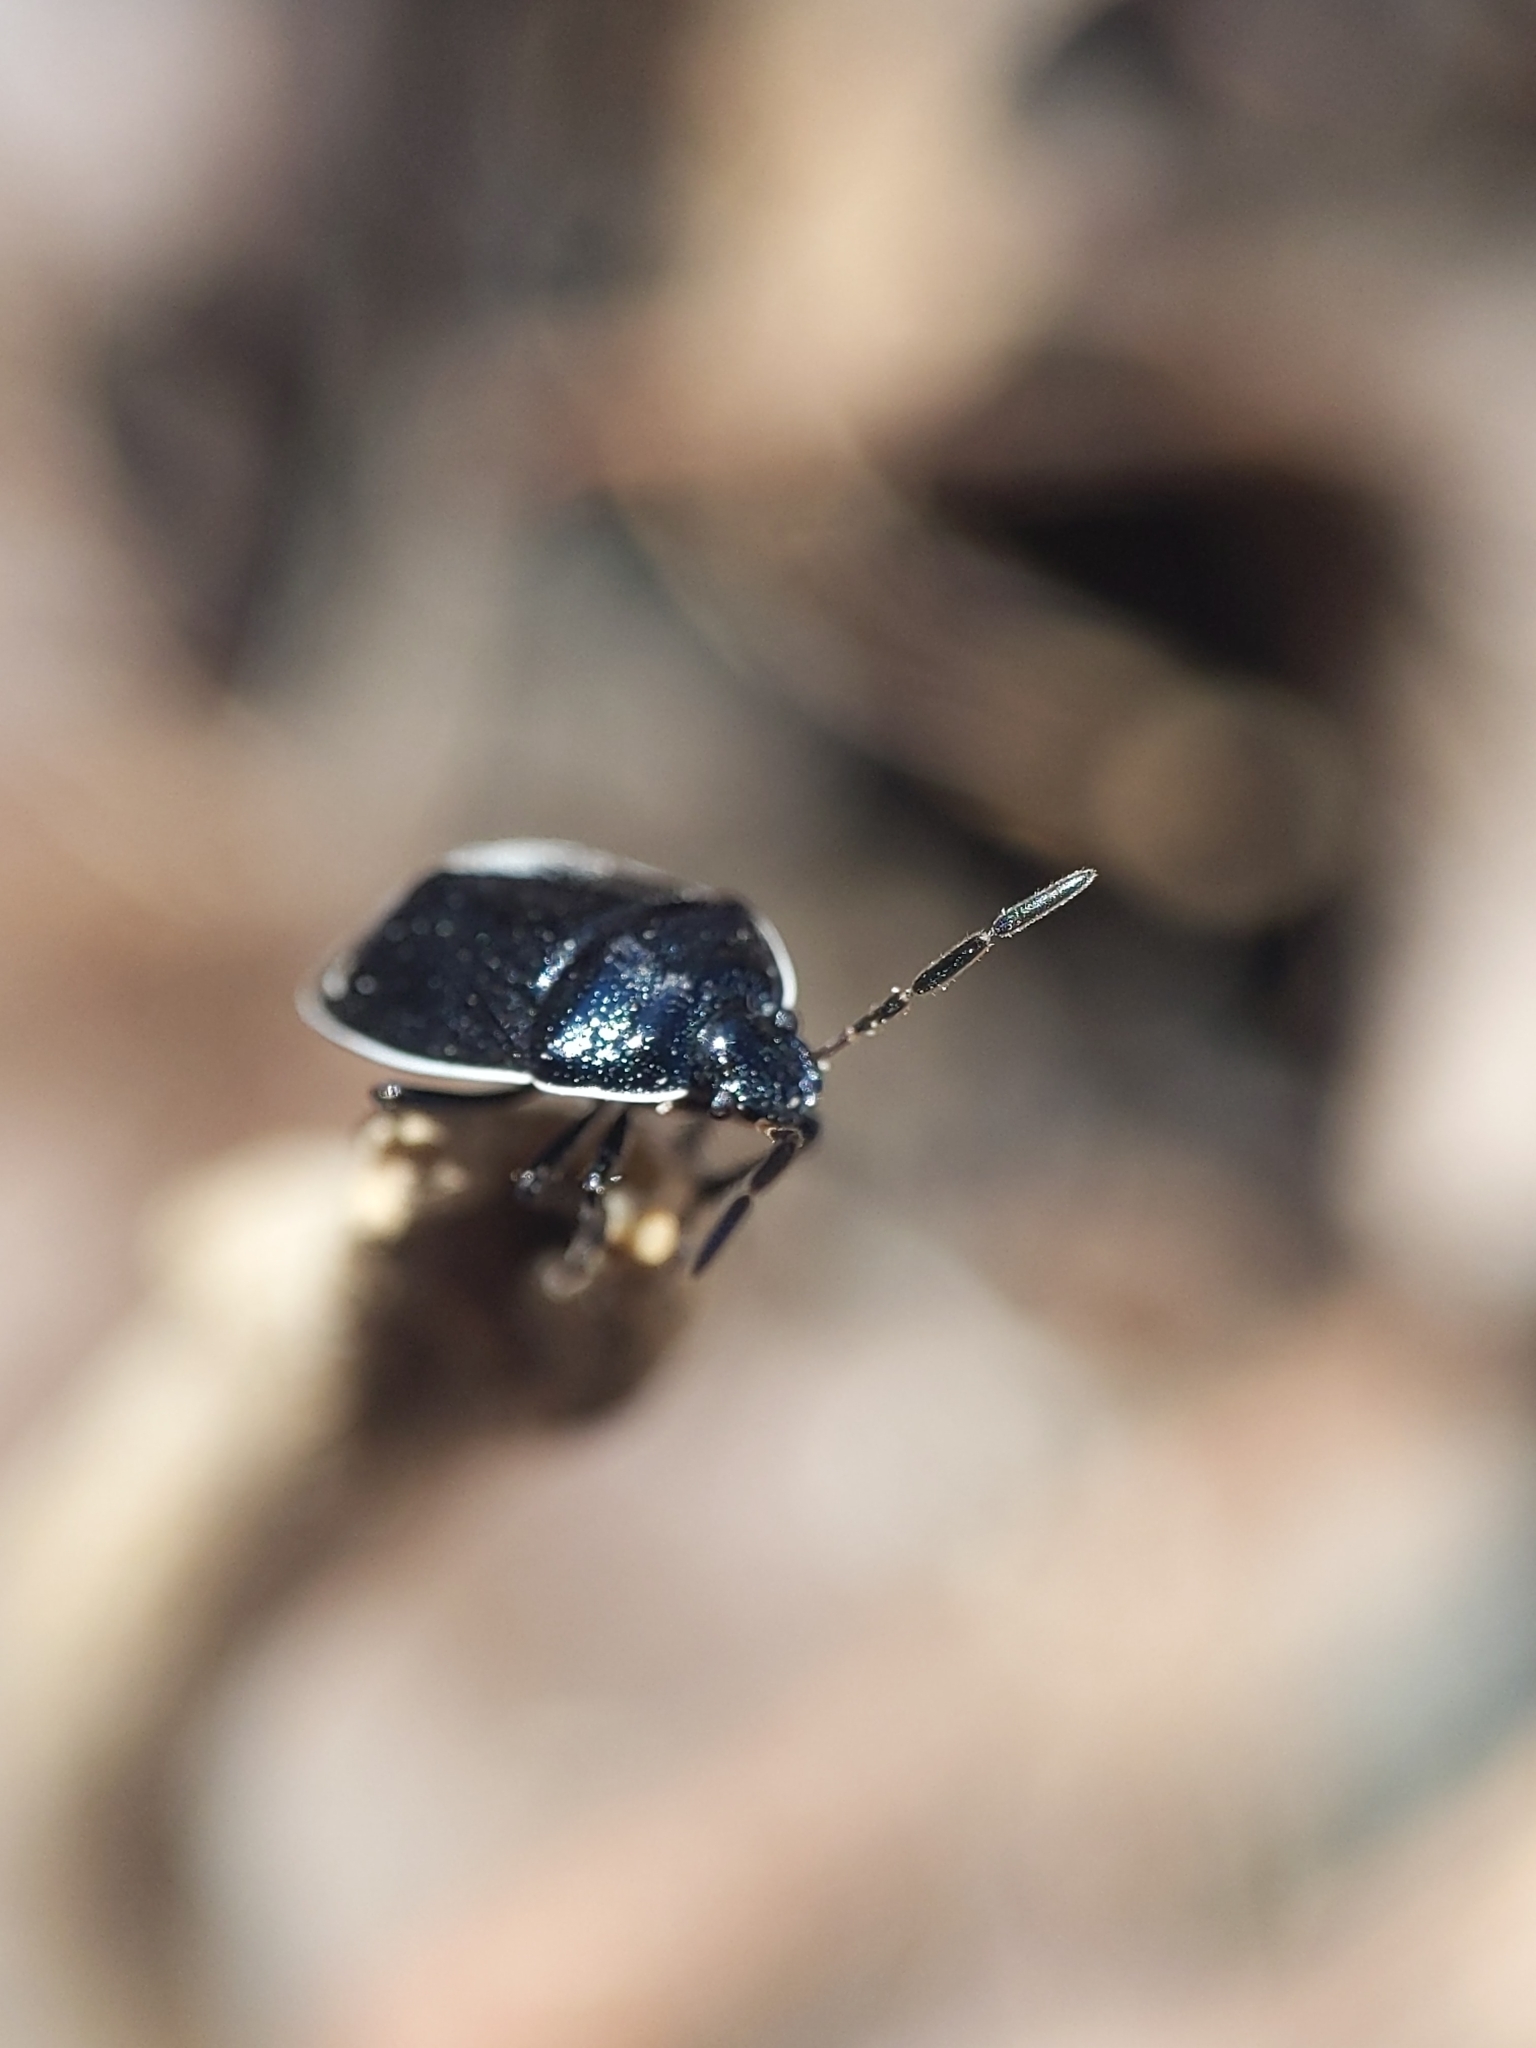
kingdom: Animalia
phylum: Arthropoda
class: Insecta
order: Hemiptera
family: Cydnidae
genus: Sehirus
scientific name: Sehirus cinctus
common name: White-margined burrower bug
